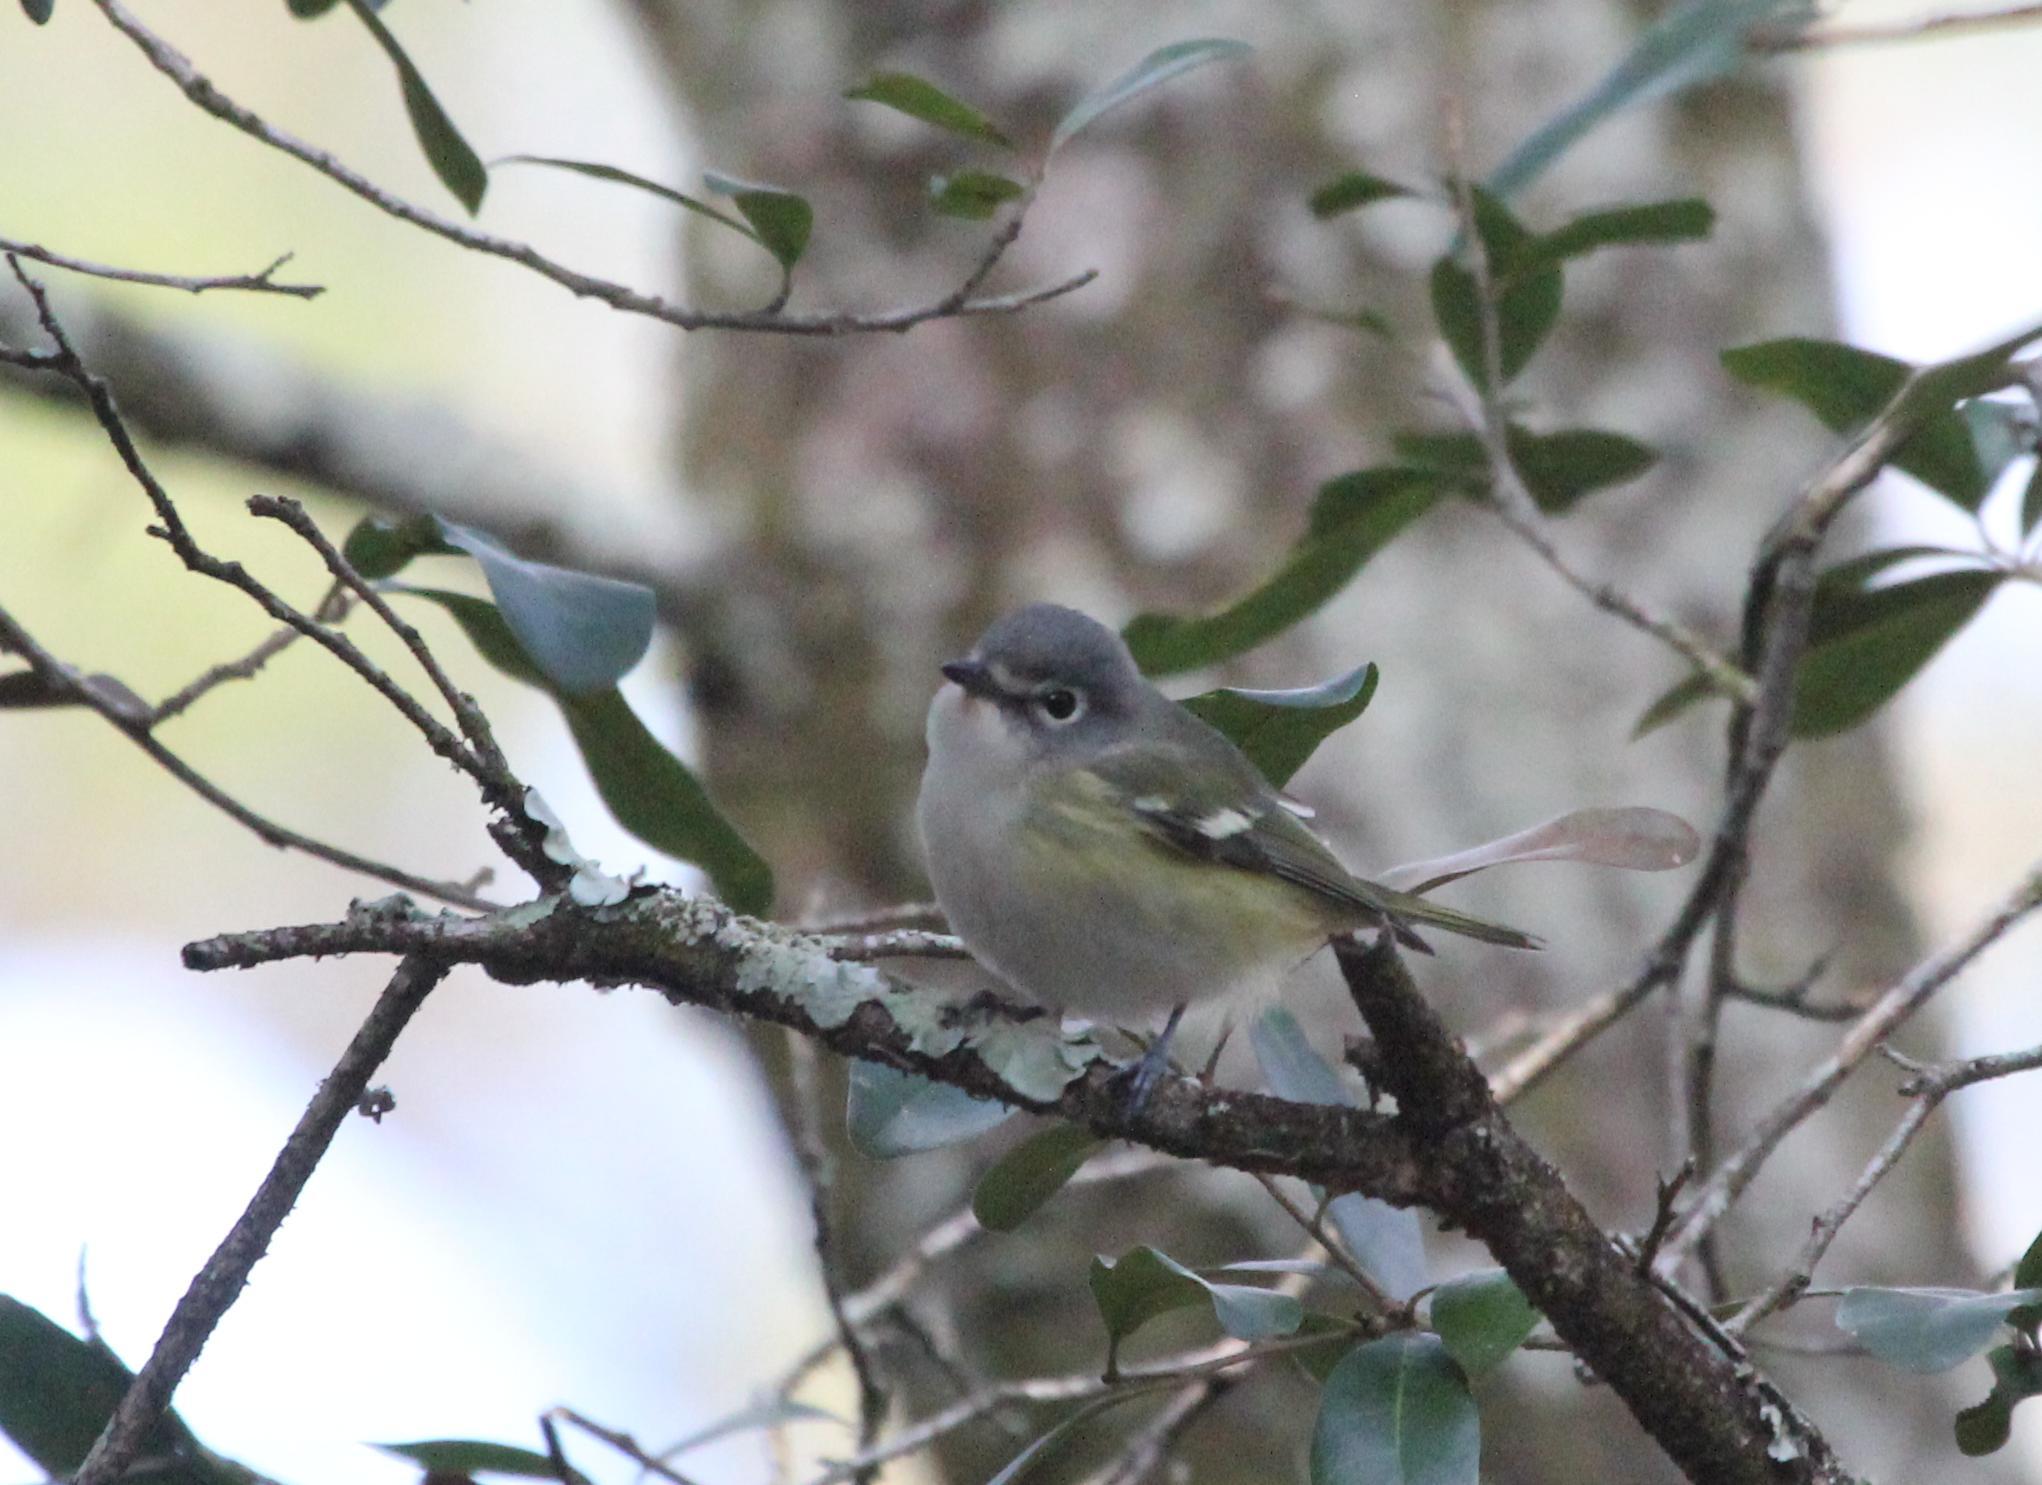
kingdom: Animalia
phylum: Chordata
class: Aves
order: Passeriformes
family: Vireonidae
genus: Vireo
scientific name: Vireo solitarius
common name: Blue-headed vireo
